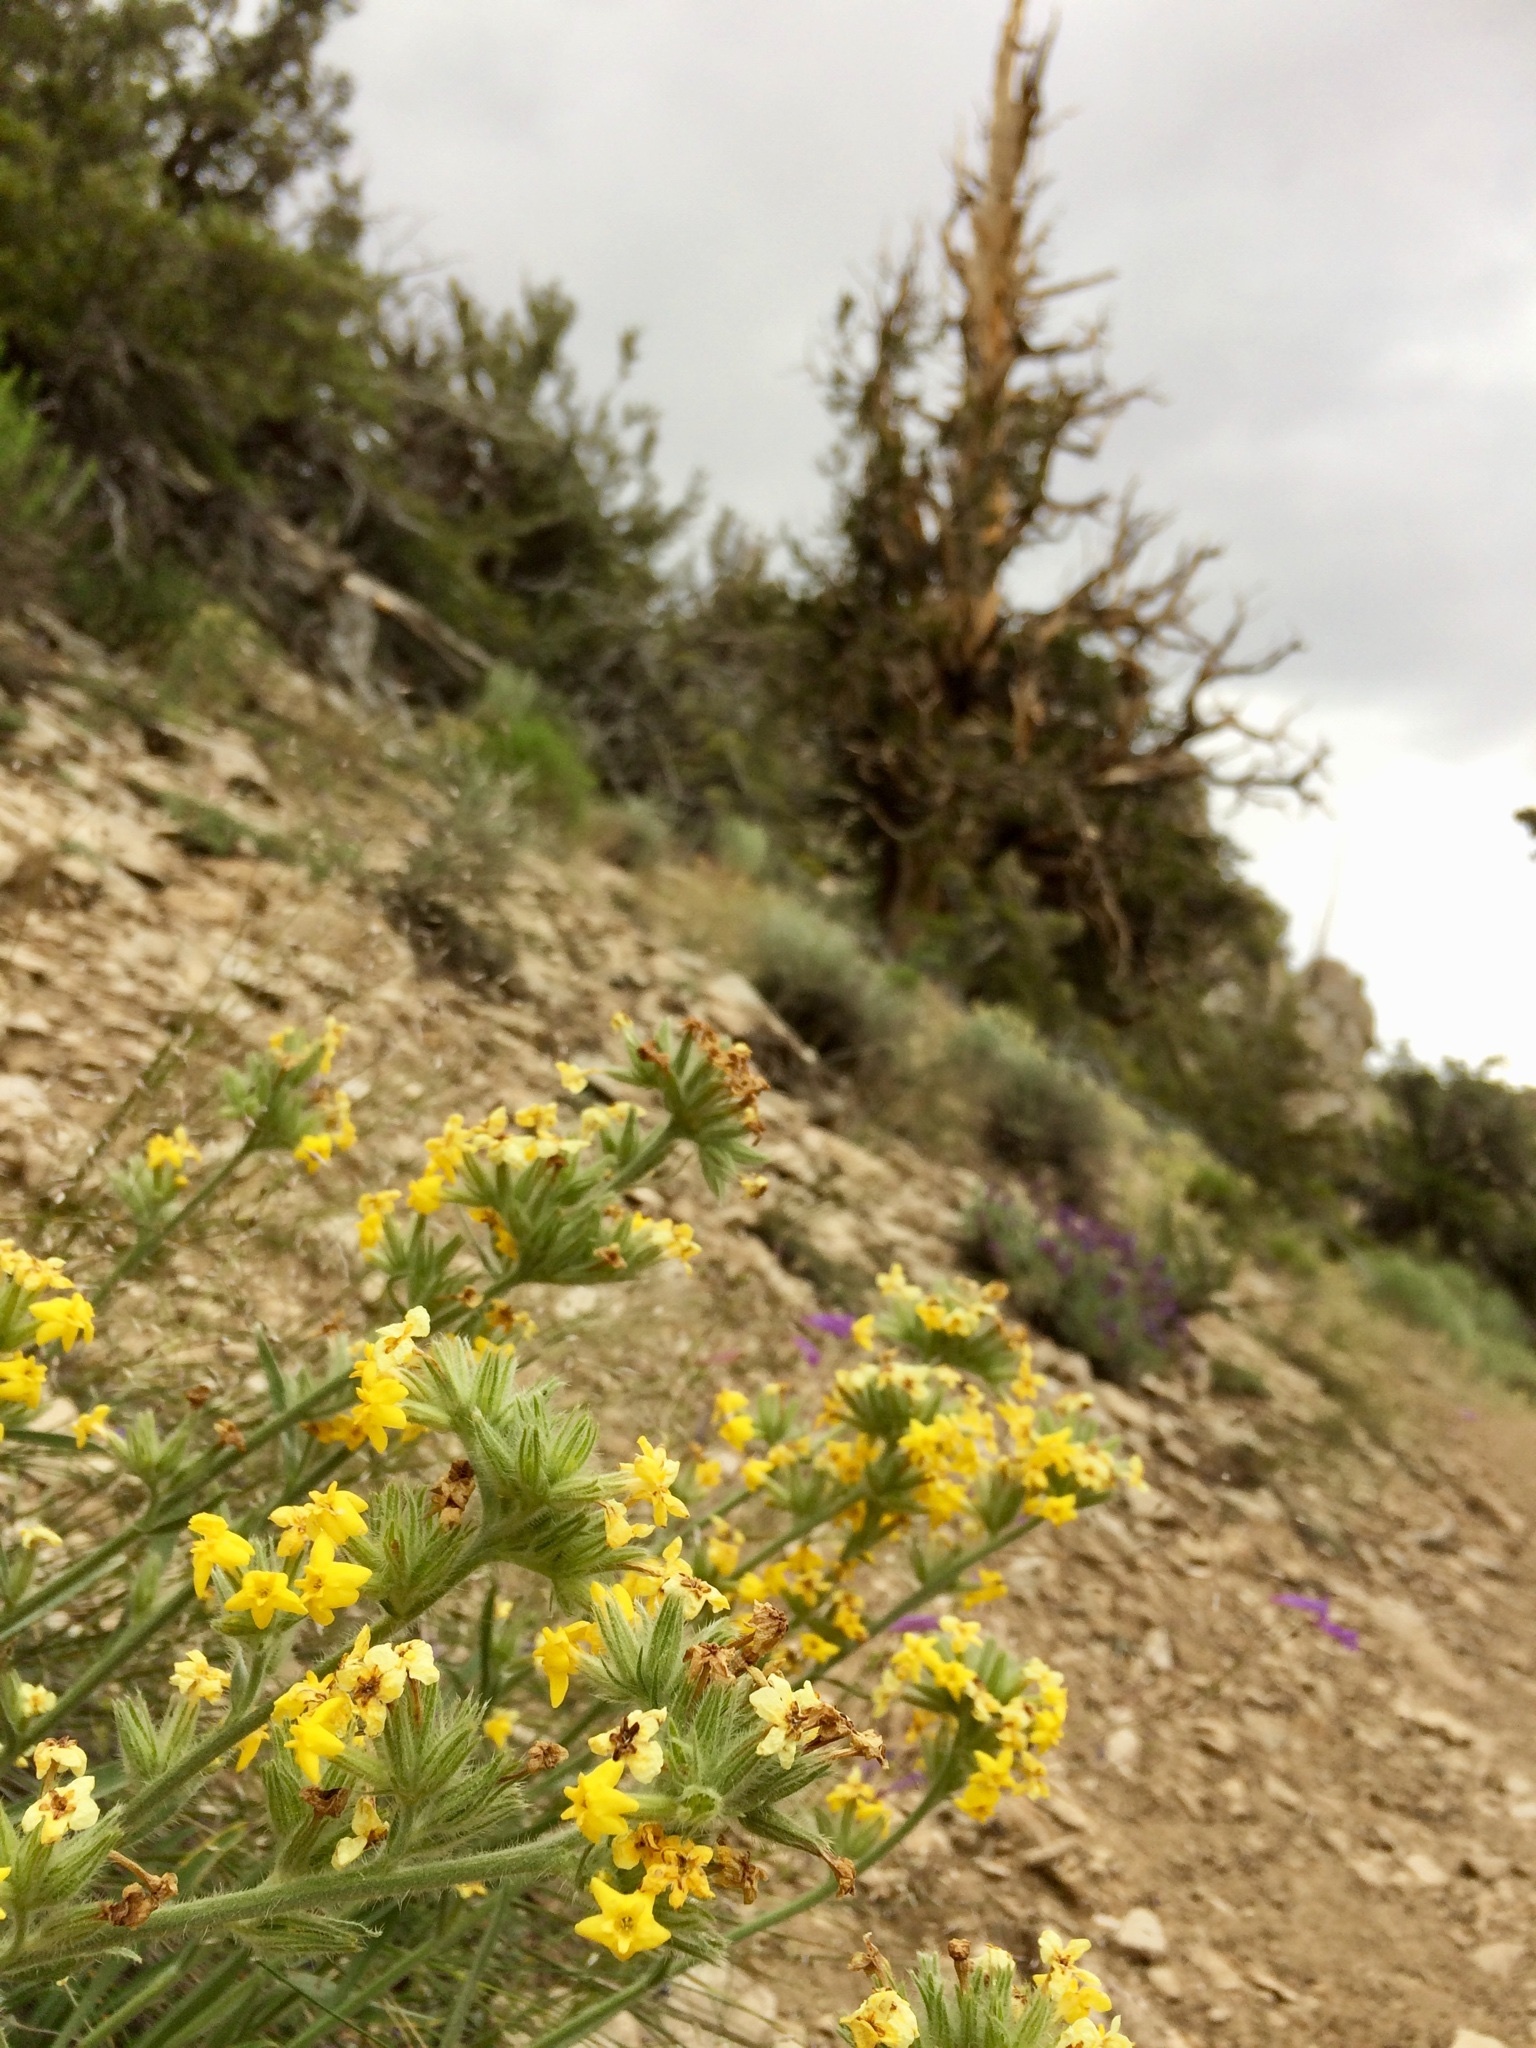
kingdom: Plantae
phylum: Tracheophyta
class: Magnoliopsida
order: Boraginales
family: Boraginaceae
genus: Oreocarya
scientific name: Oreocarya confertiflora
